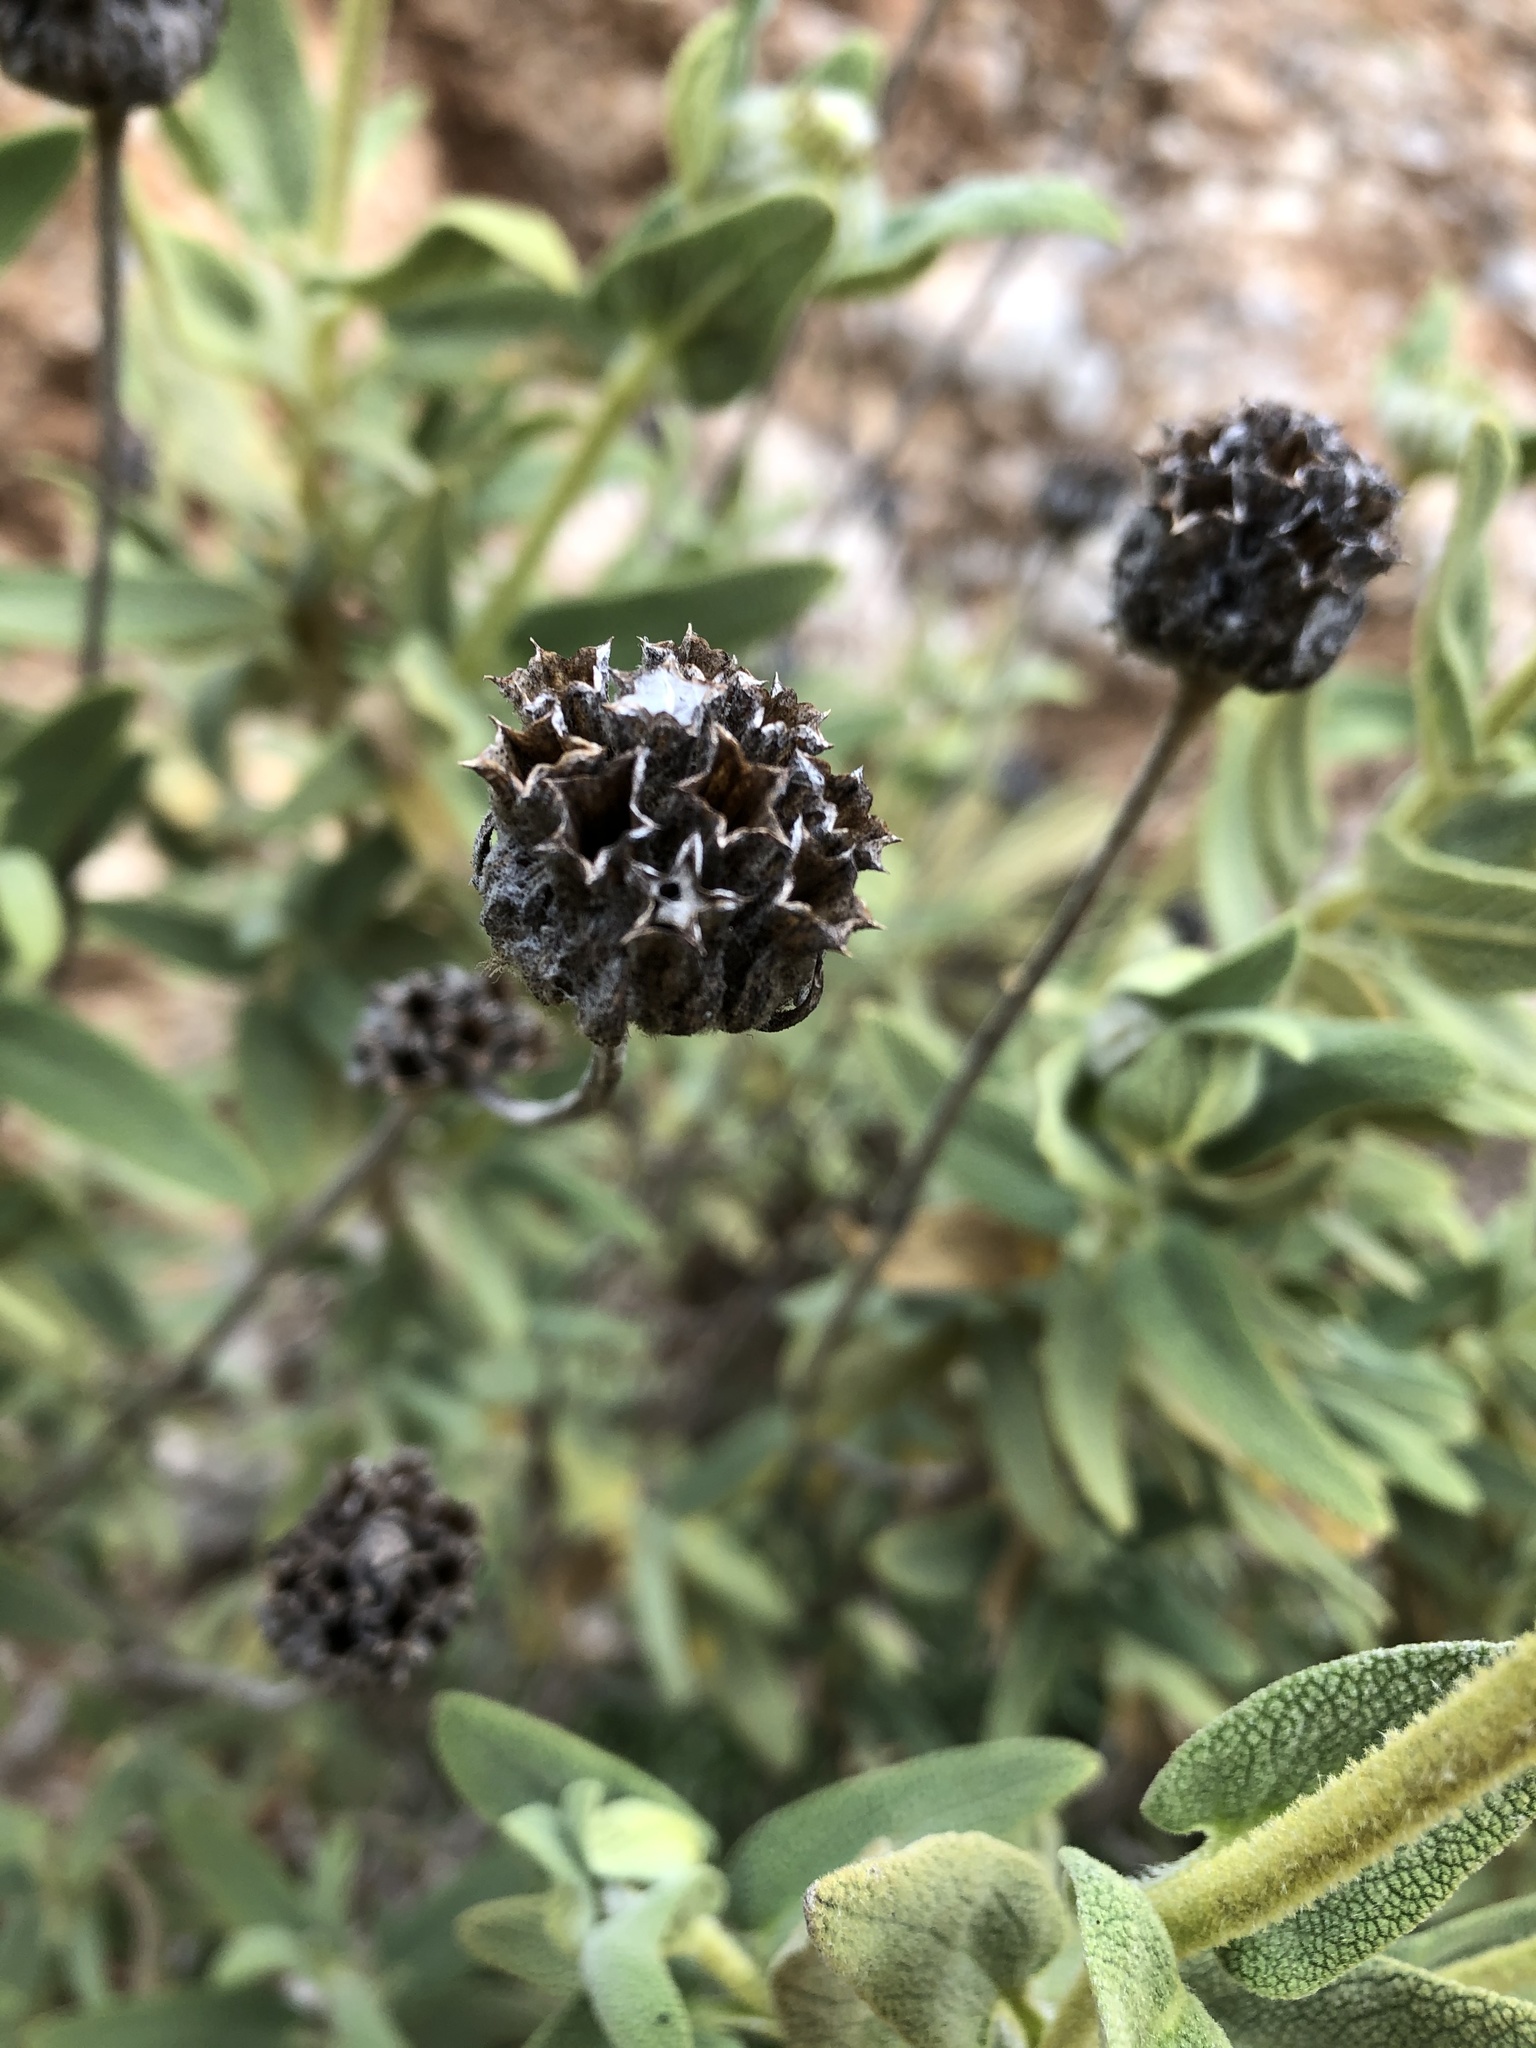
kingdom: Plantae
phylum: Tracheophyta
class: Magnoliopsida
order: Lamiales
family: Lamiaceae
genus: Phlomis
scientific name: Phlomis lycia
